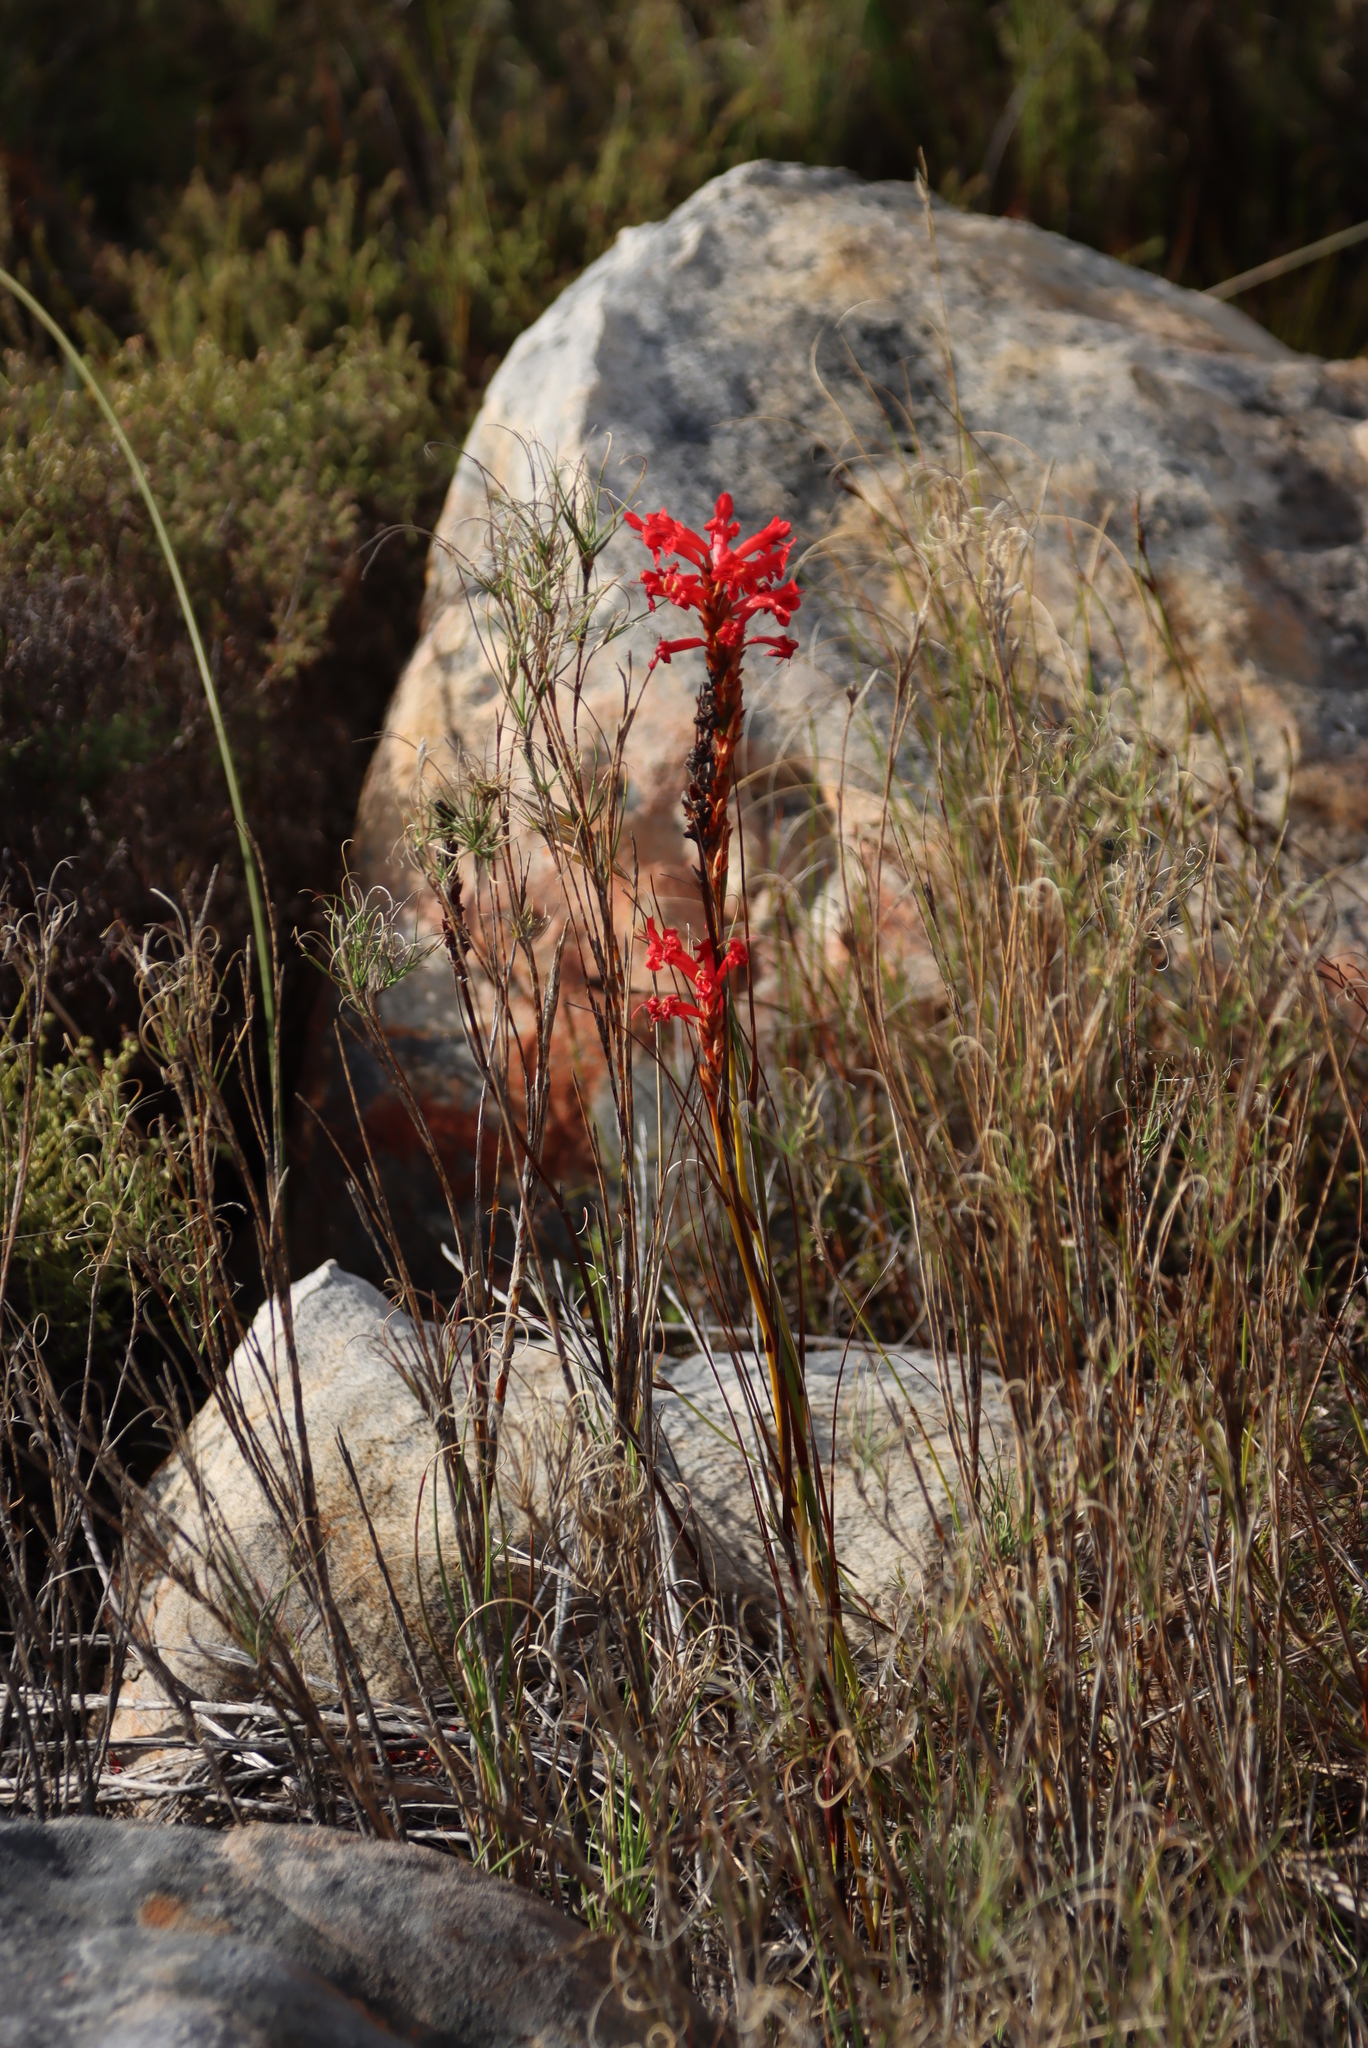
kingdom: Plantae
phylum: Tracheophyta
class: Liliopsida
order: Asparagales
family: Iridaceae
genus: Tritoniopsis
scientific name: Tritoniopsis triticea
